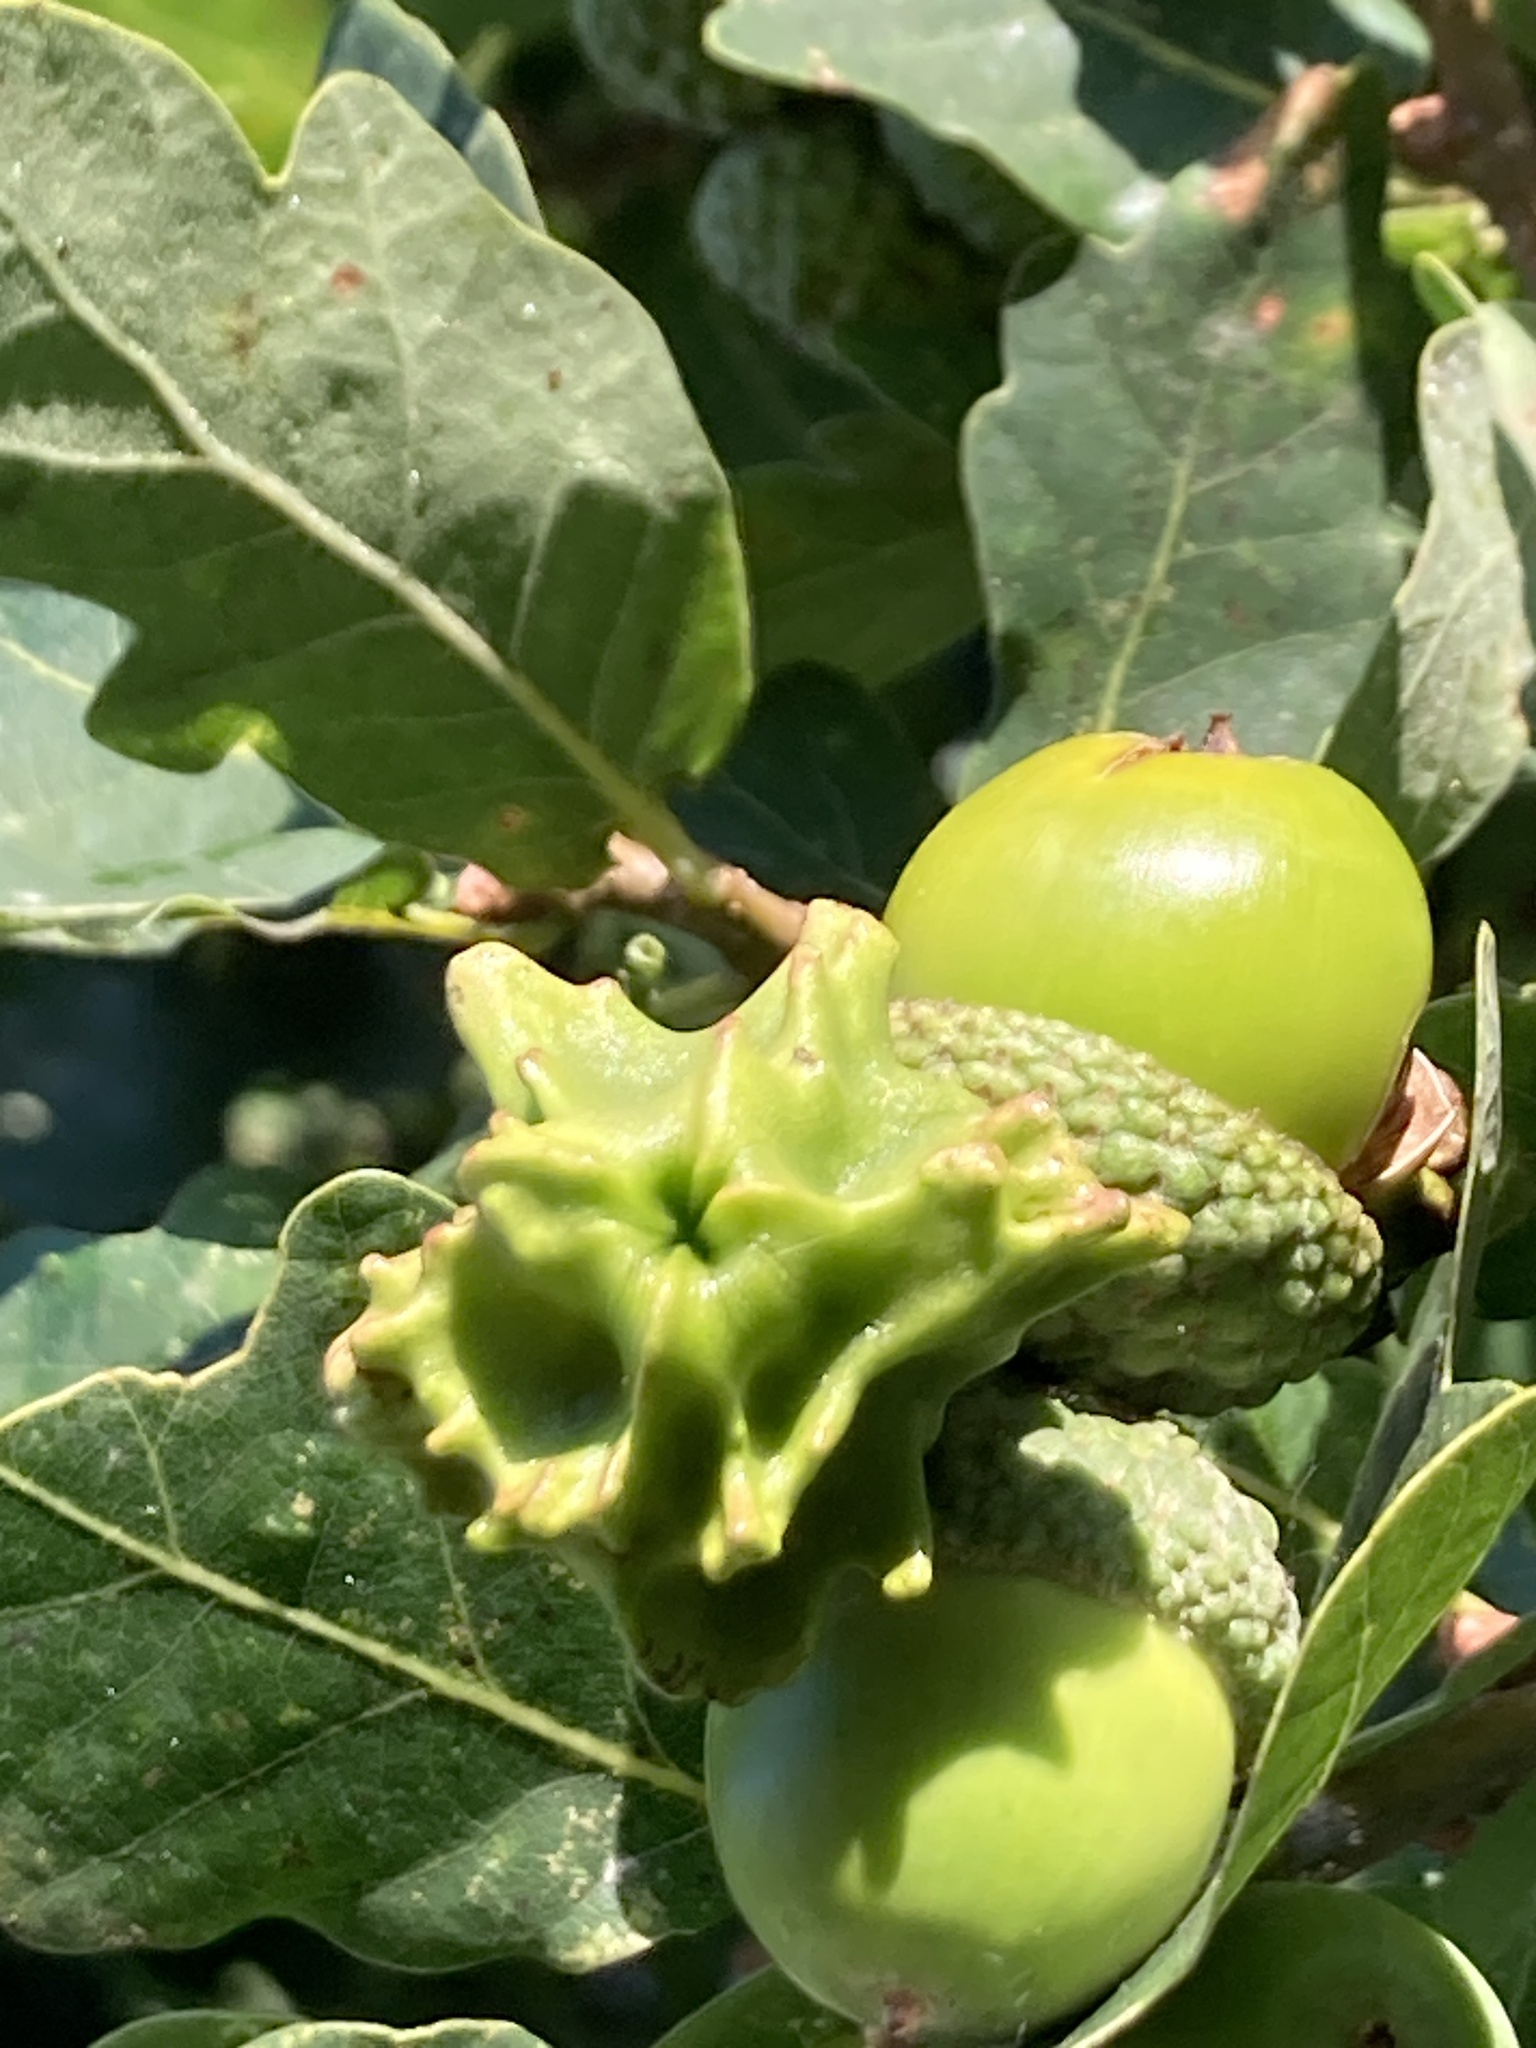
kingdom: Animalia
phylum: Arthropoda
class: Insecta
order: Hymenoptera
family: Cynipidae
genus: Andricus
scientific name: Andricus quercuscalicis
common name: Knopper gall
